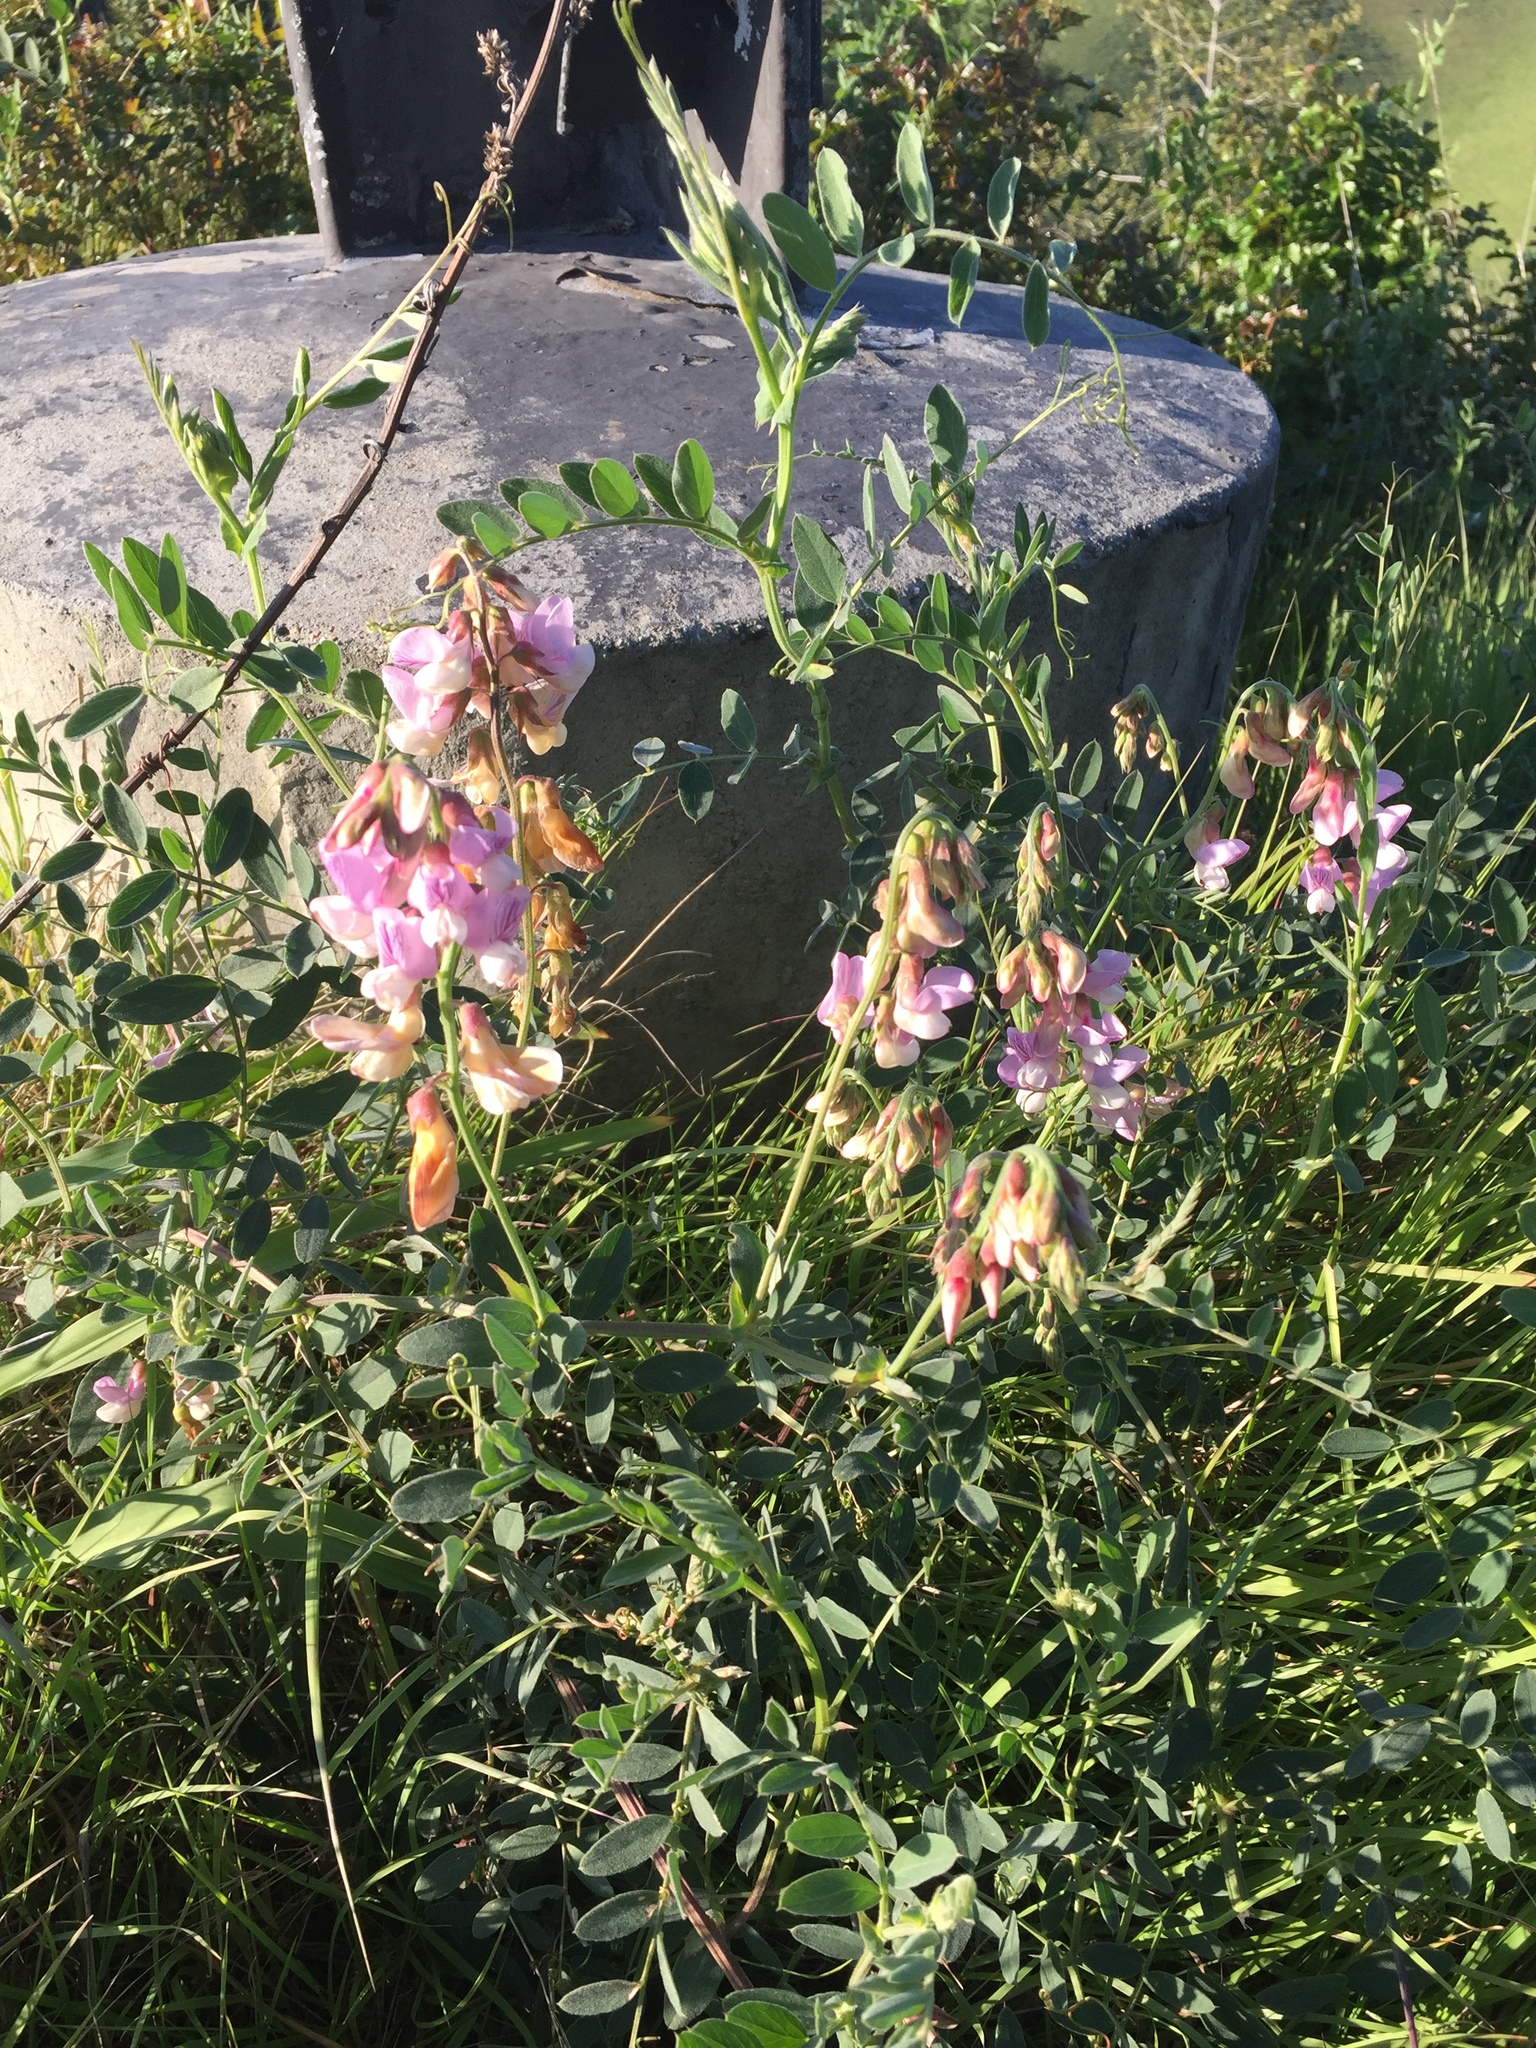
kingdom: Plantae
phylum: Tracheophyta
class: Magnoliopsida
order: Fabales
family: Fabaceae
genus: Lathyrus
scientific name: Lathyrus vestitus
